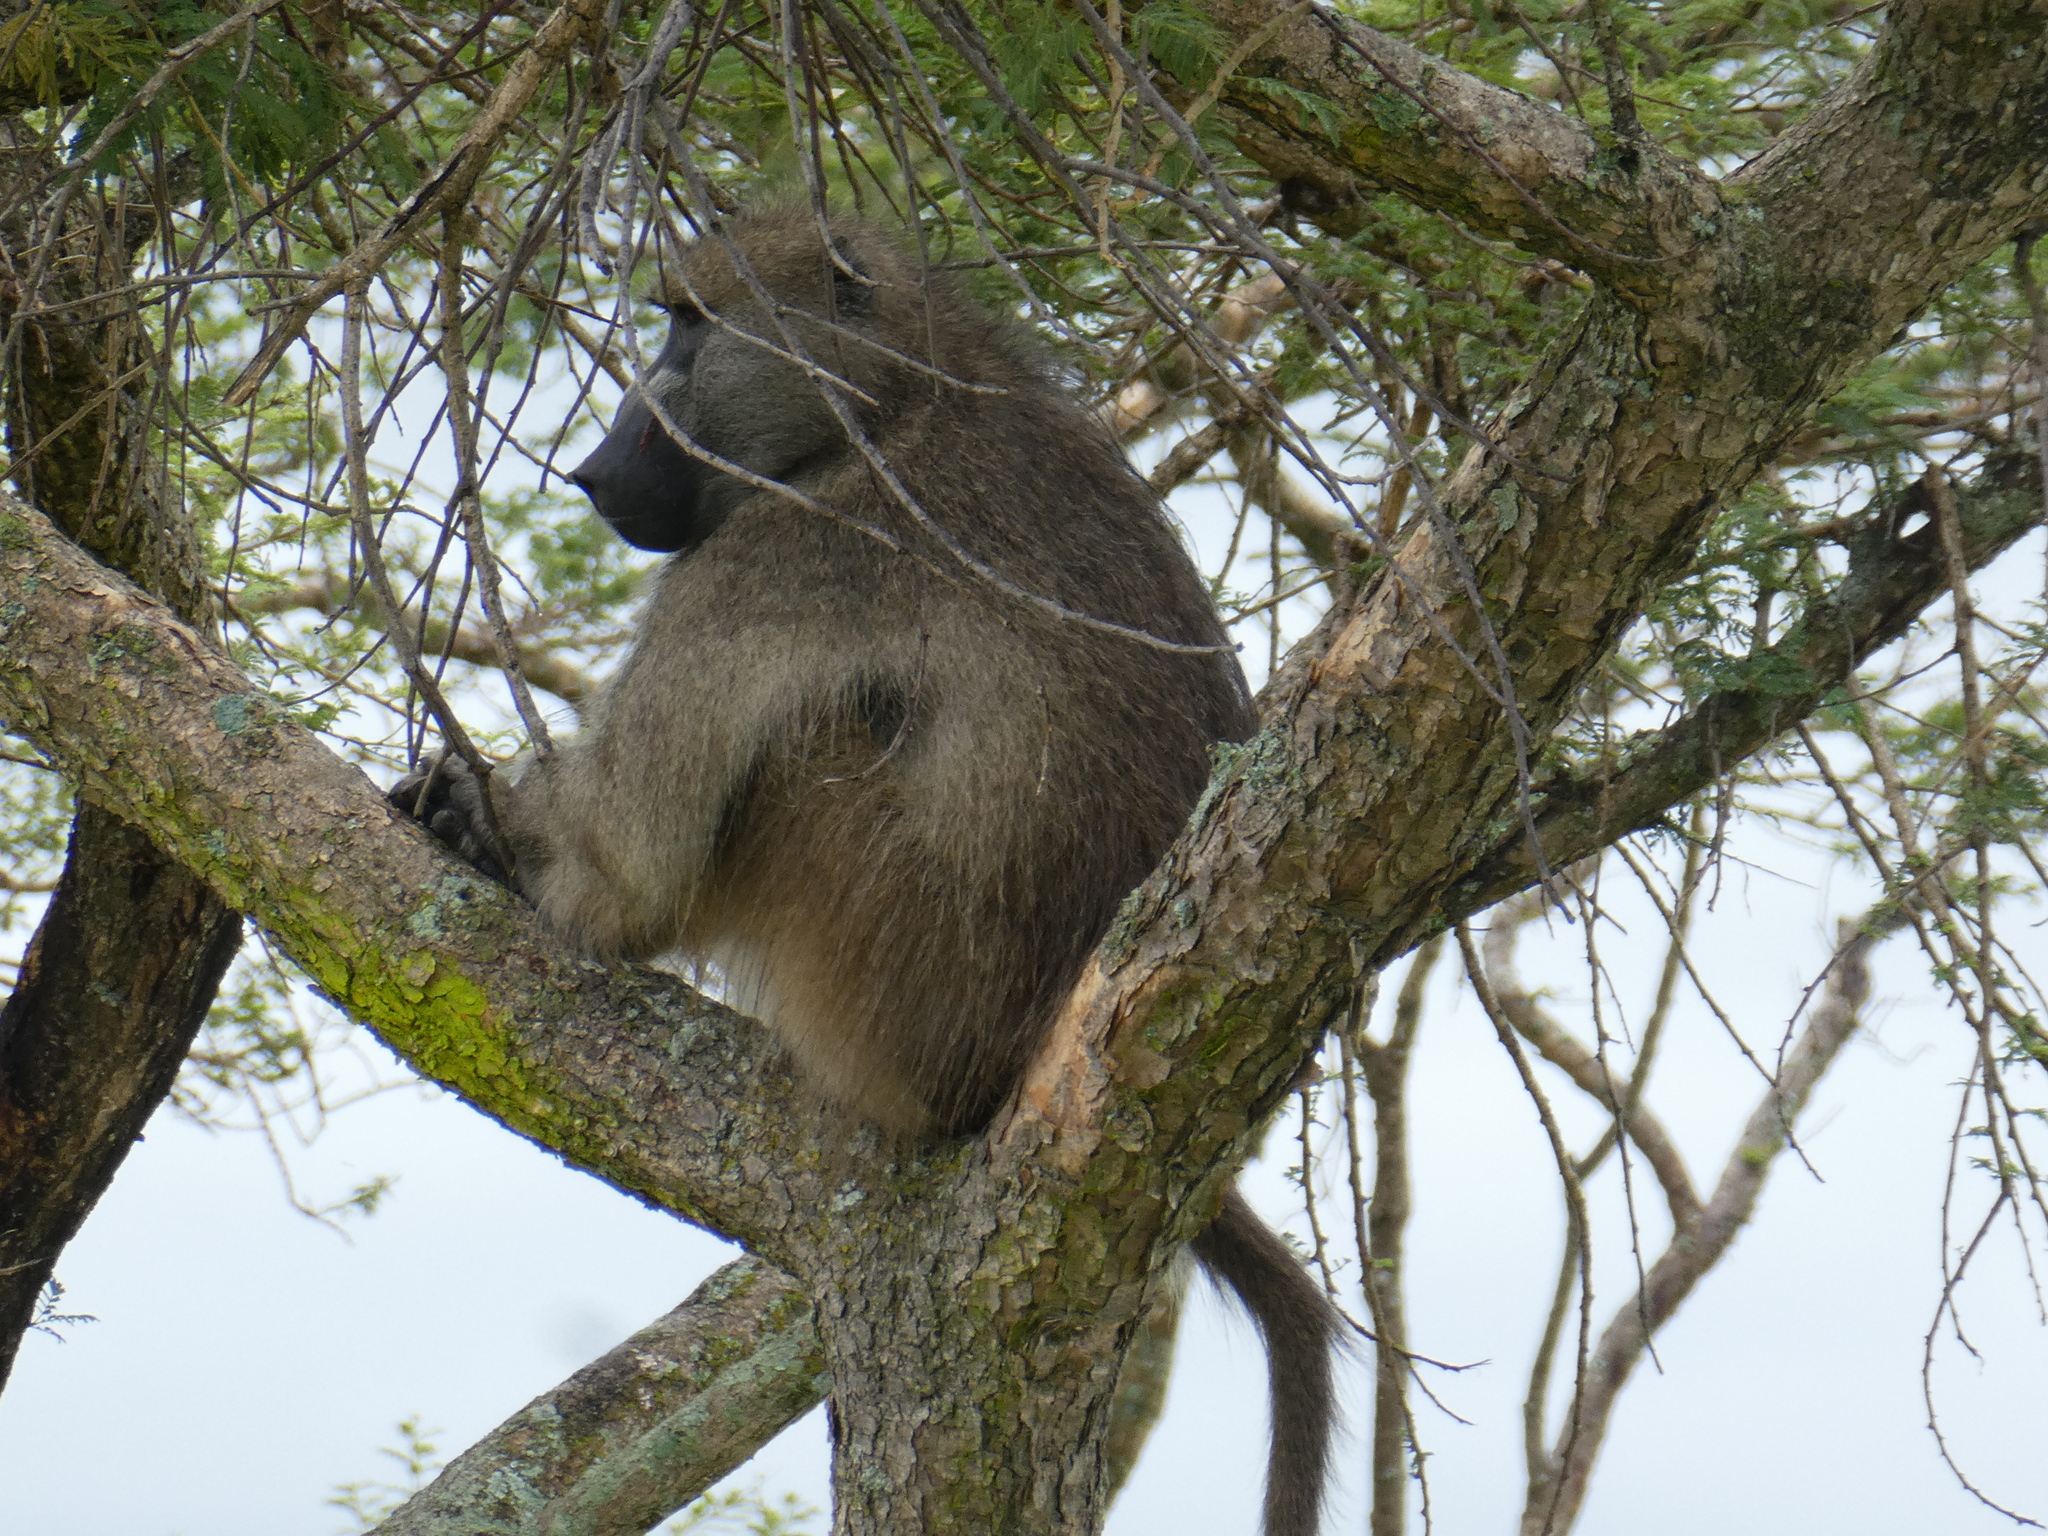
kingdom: Animalia
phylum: Chordata
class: Mammalia
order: Primates
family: Cercopithecidae
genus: Papio
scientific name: Papio ursinus
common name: Chacma baboon
